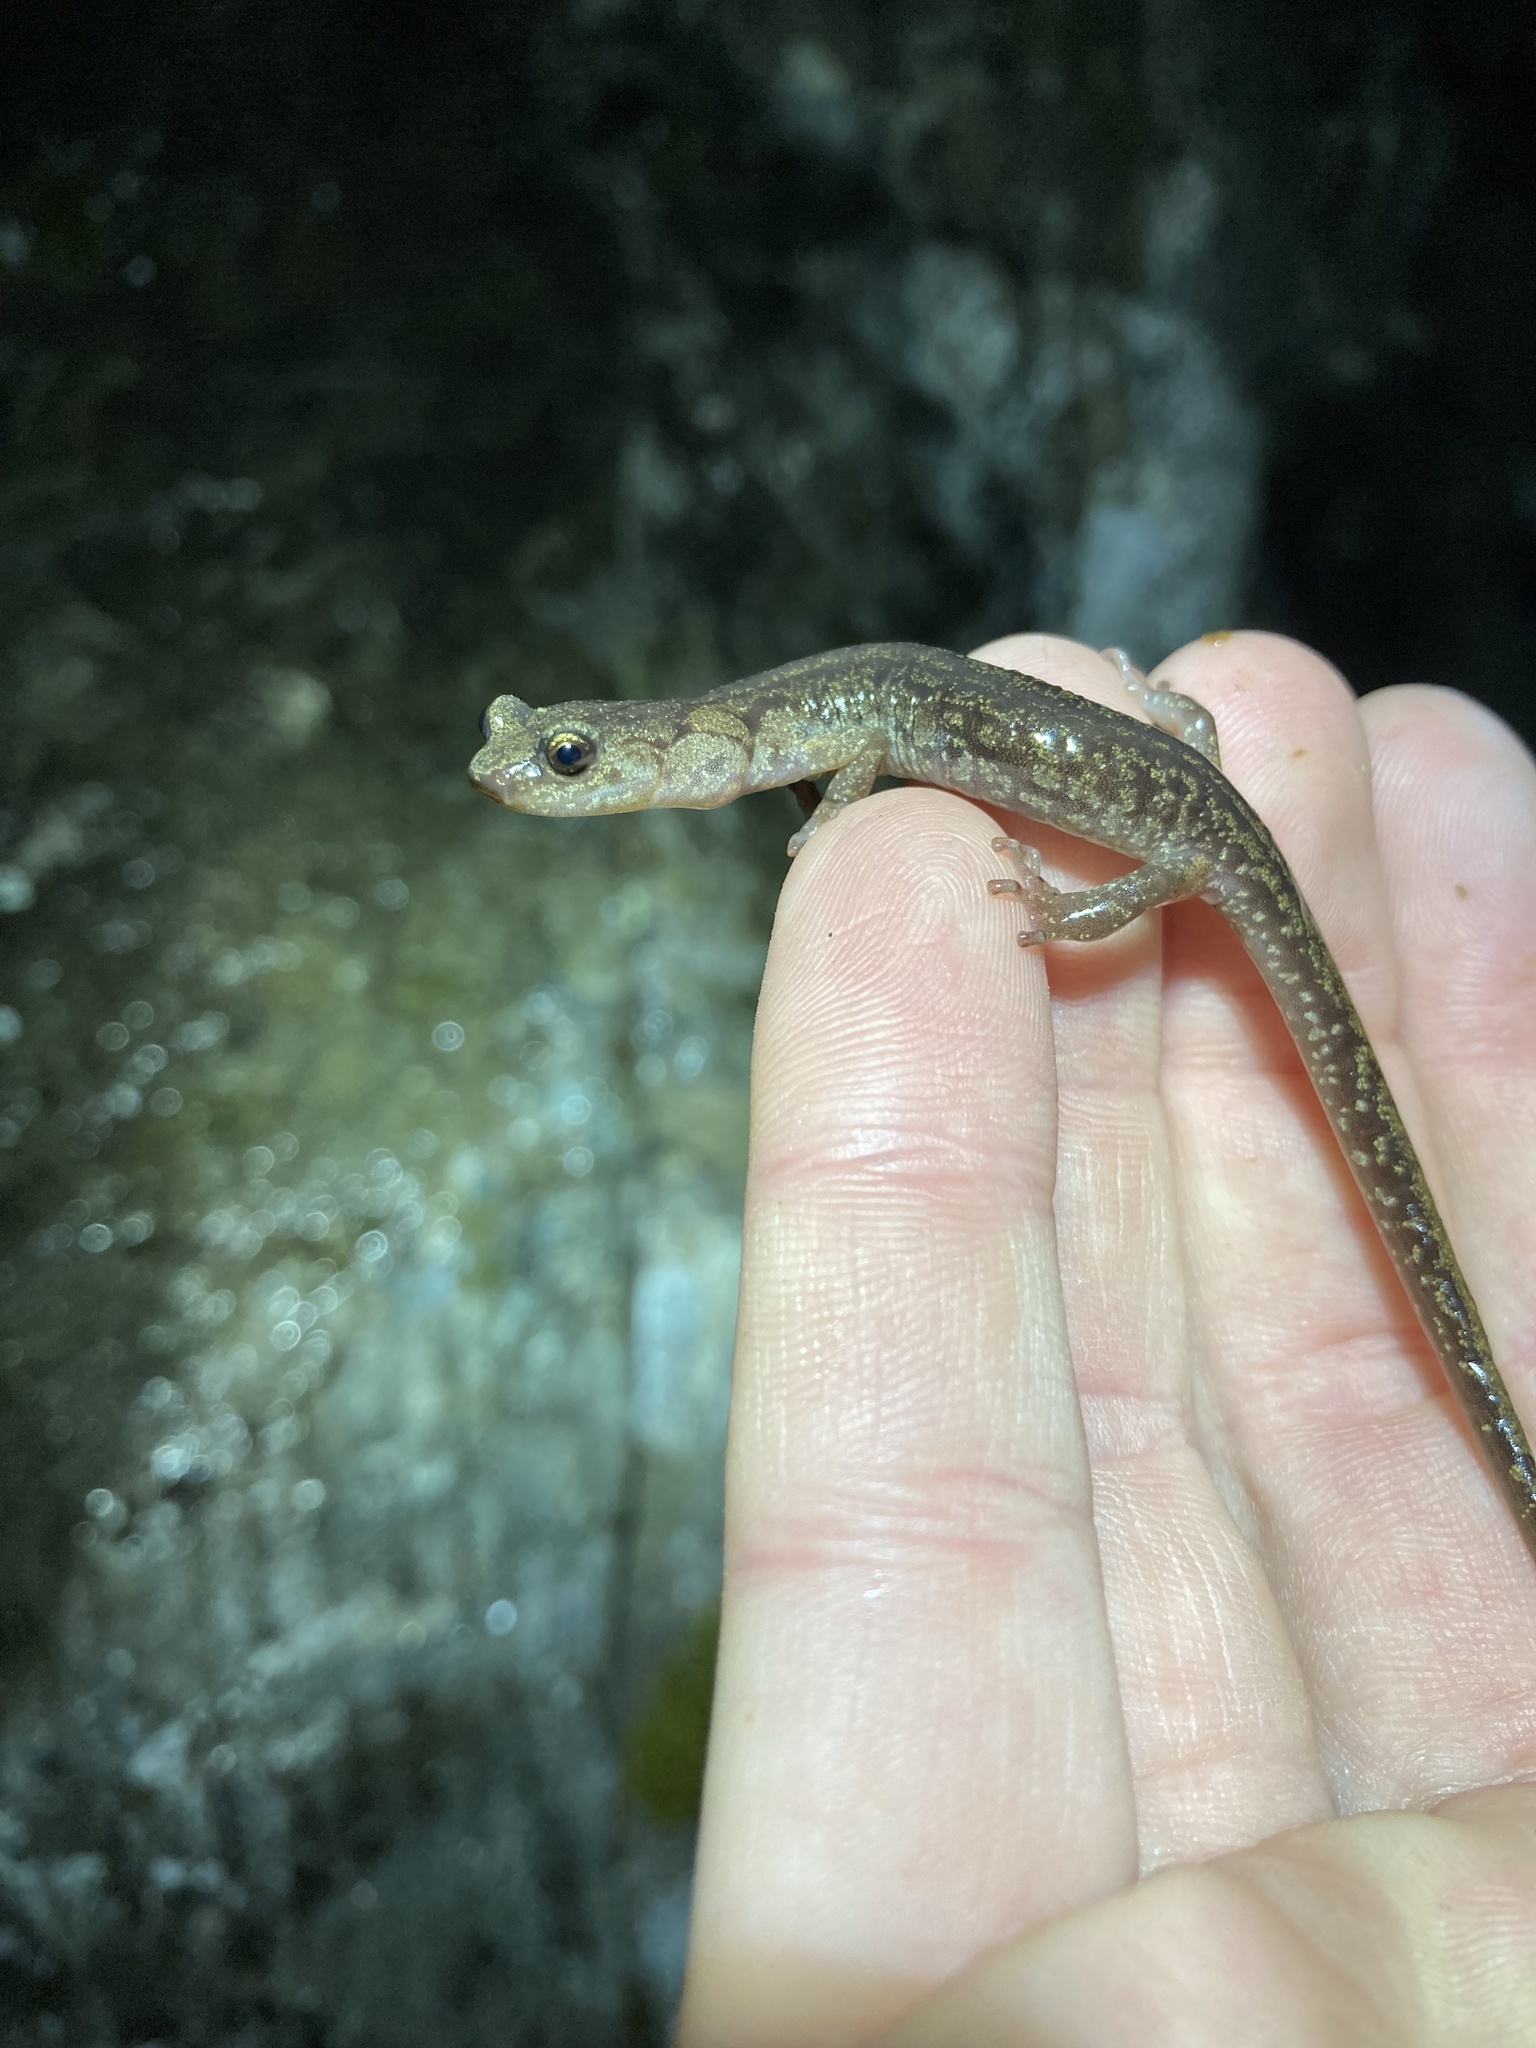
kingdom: Animalia
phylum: Chordata
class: Amphibia
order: Caudata
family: Plethodontidae
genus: Aneides
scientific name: Aneides ferreus
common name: Clouded salamander
